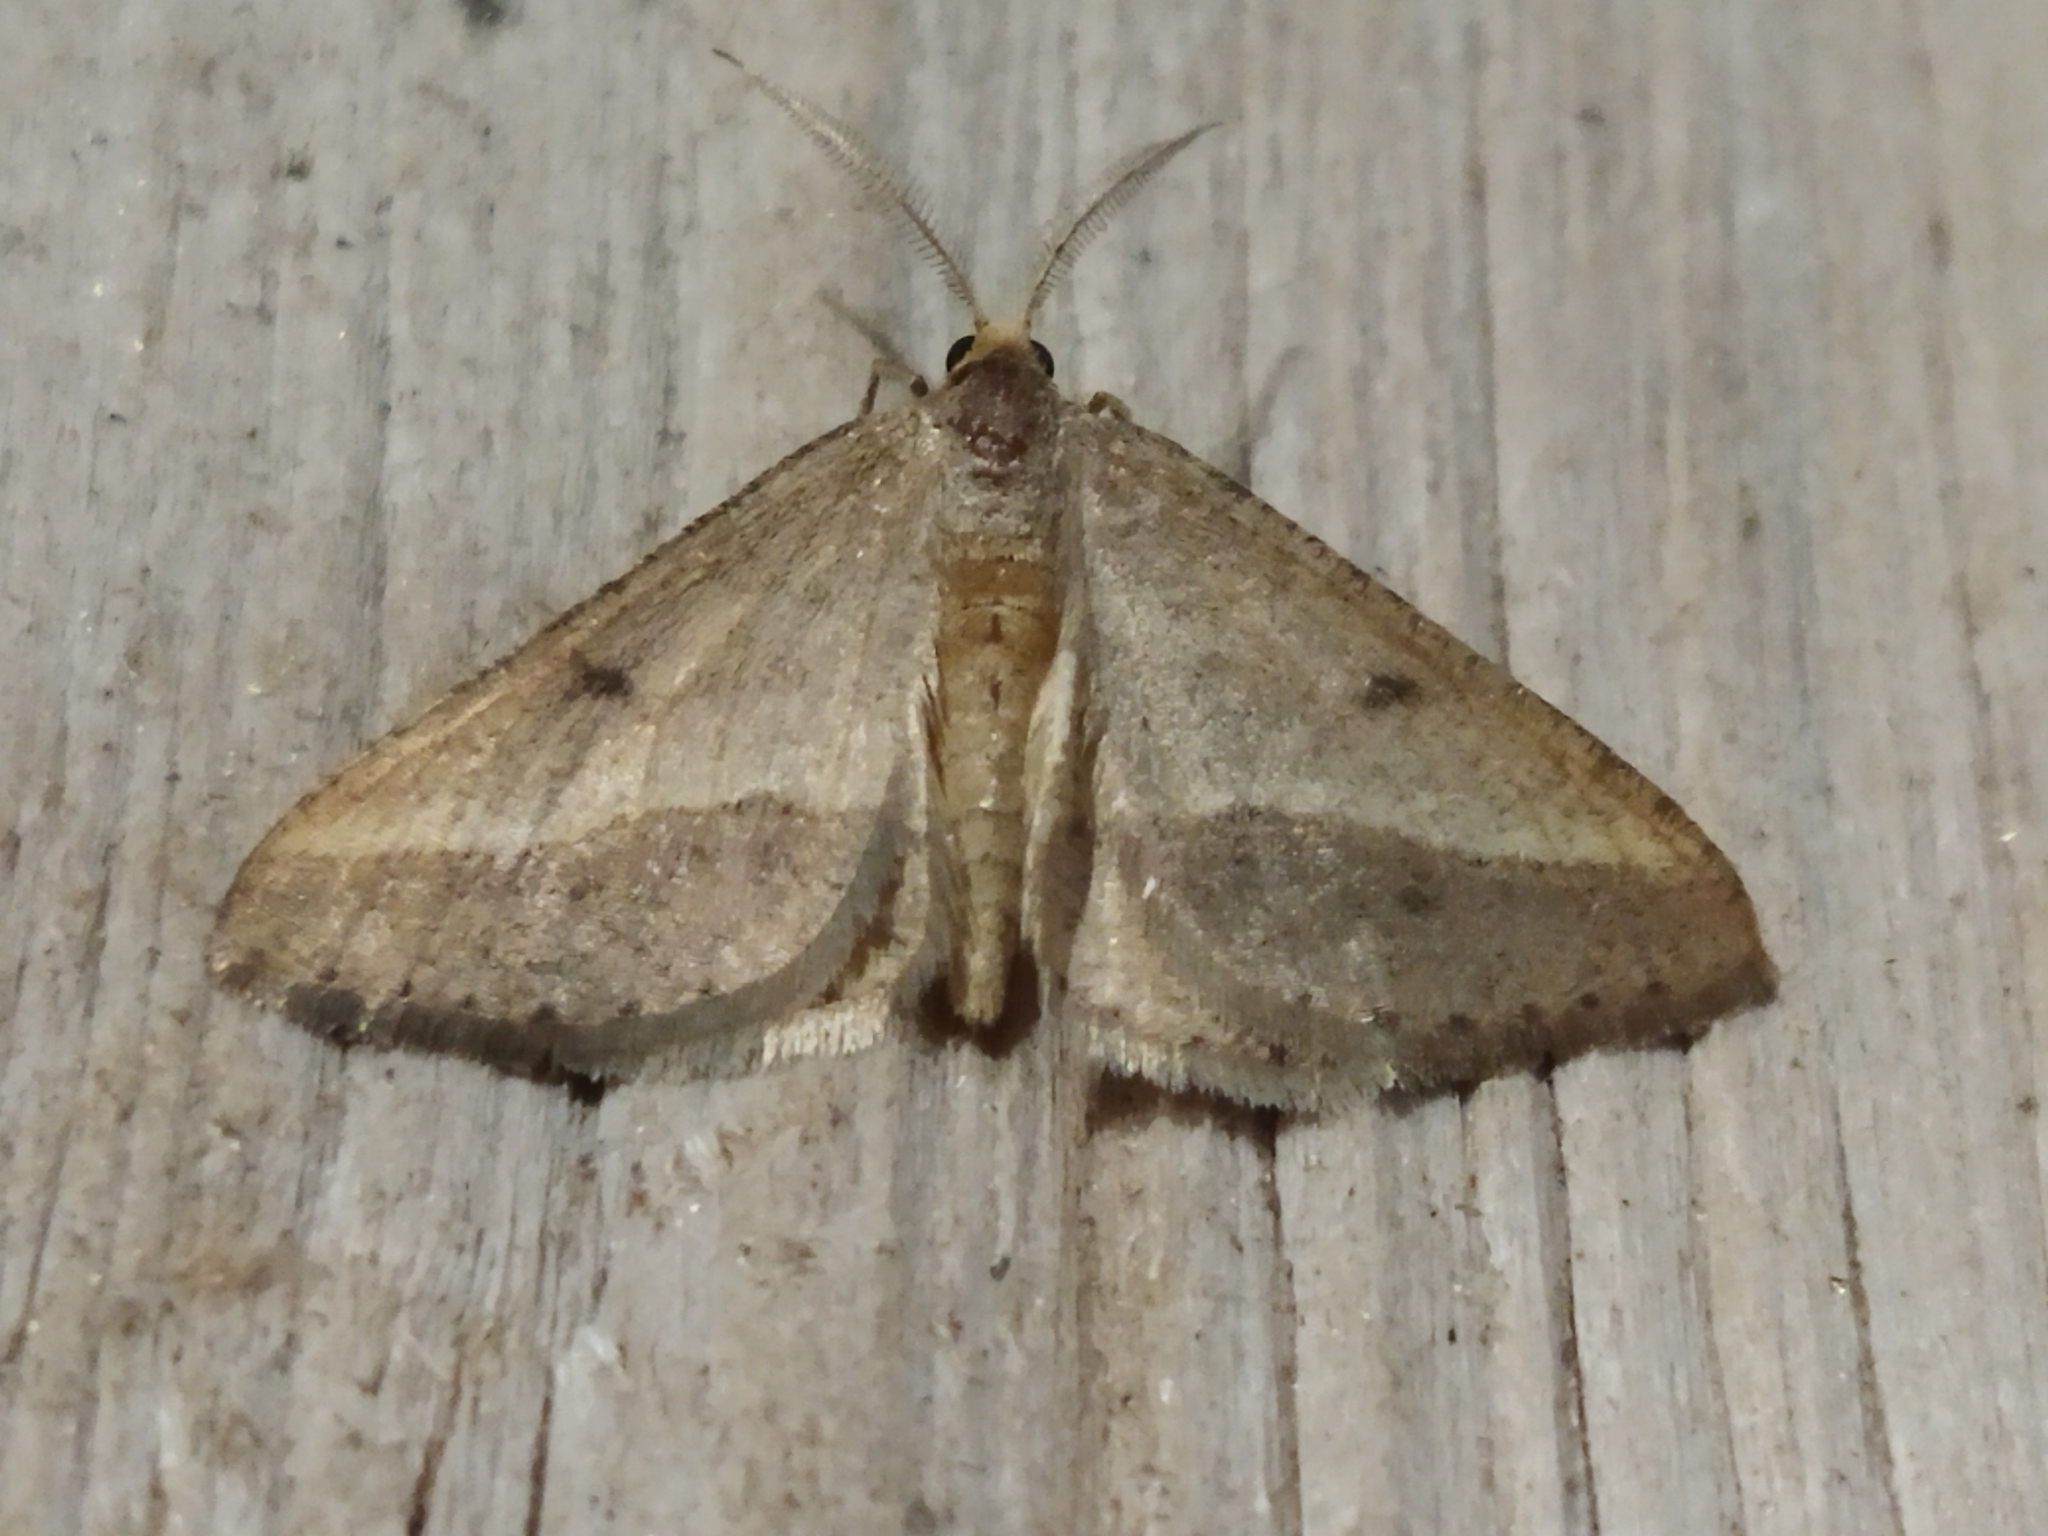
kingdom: Animalia
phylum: Arthropoda
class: Insecta
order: Lepidoptera
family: Geometridae
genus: Tephrina
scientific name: Tephrina arenacearia
